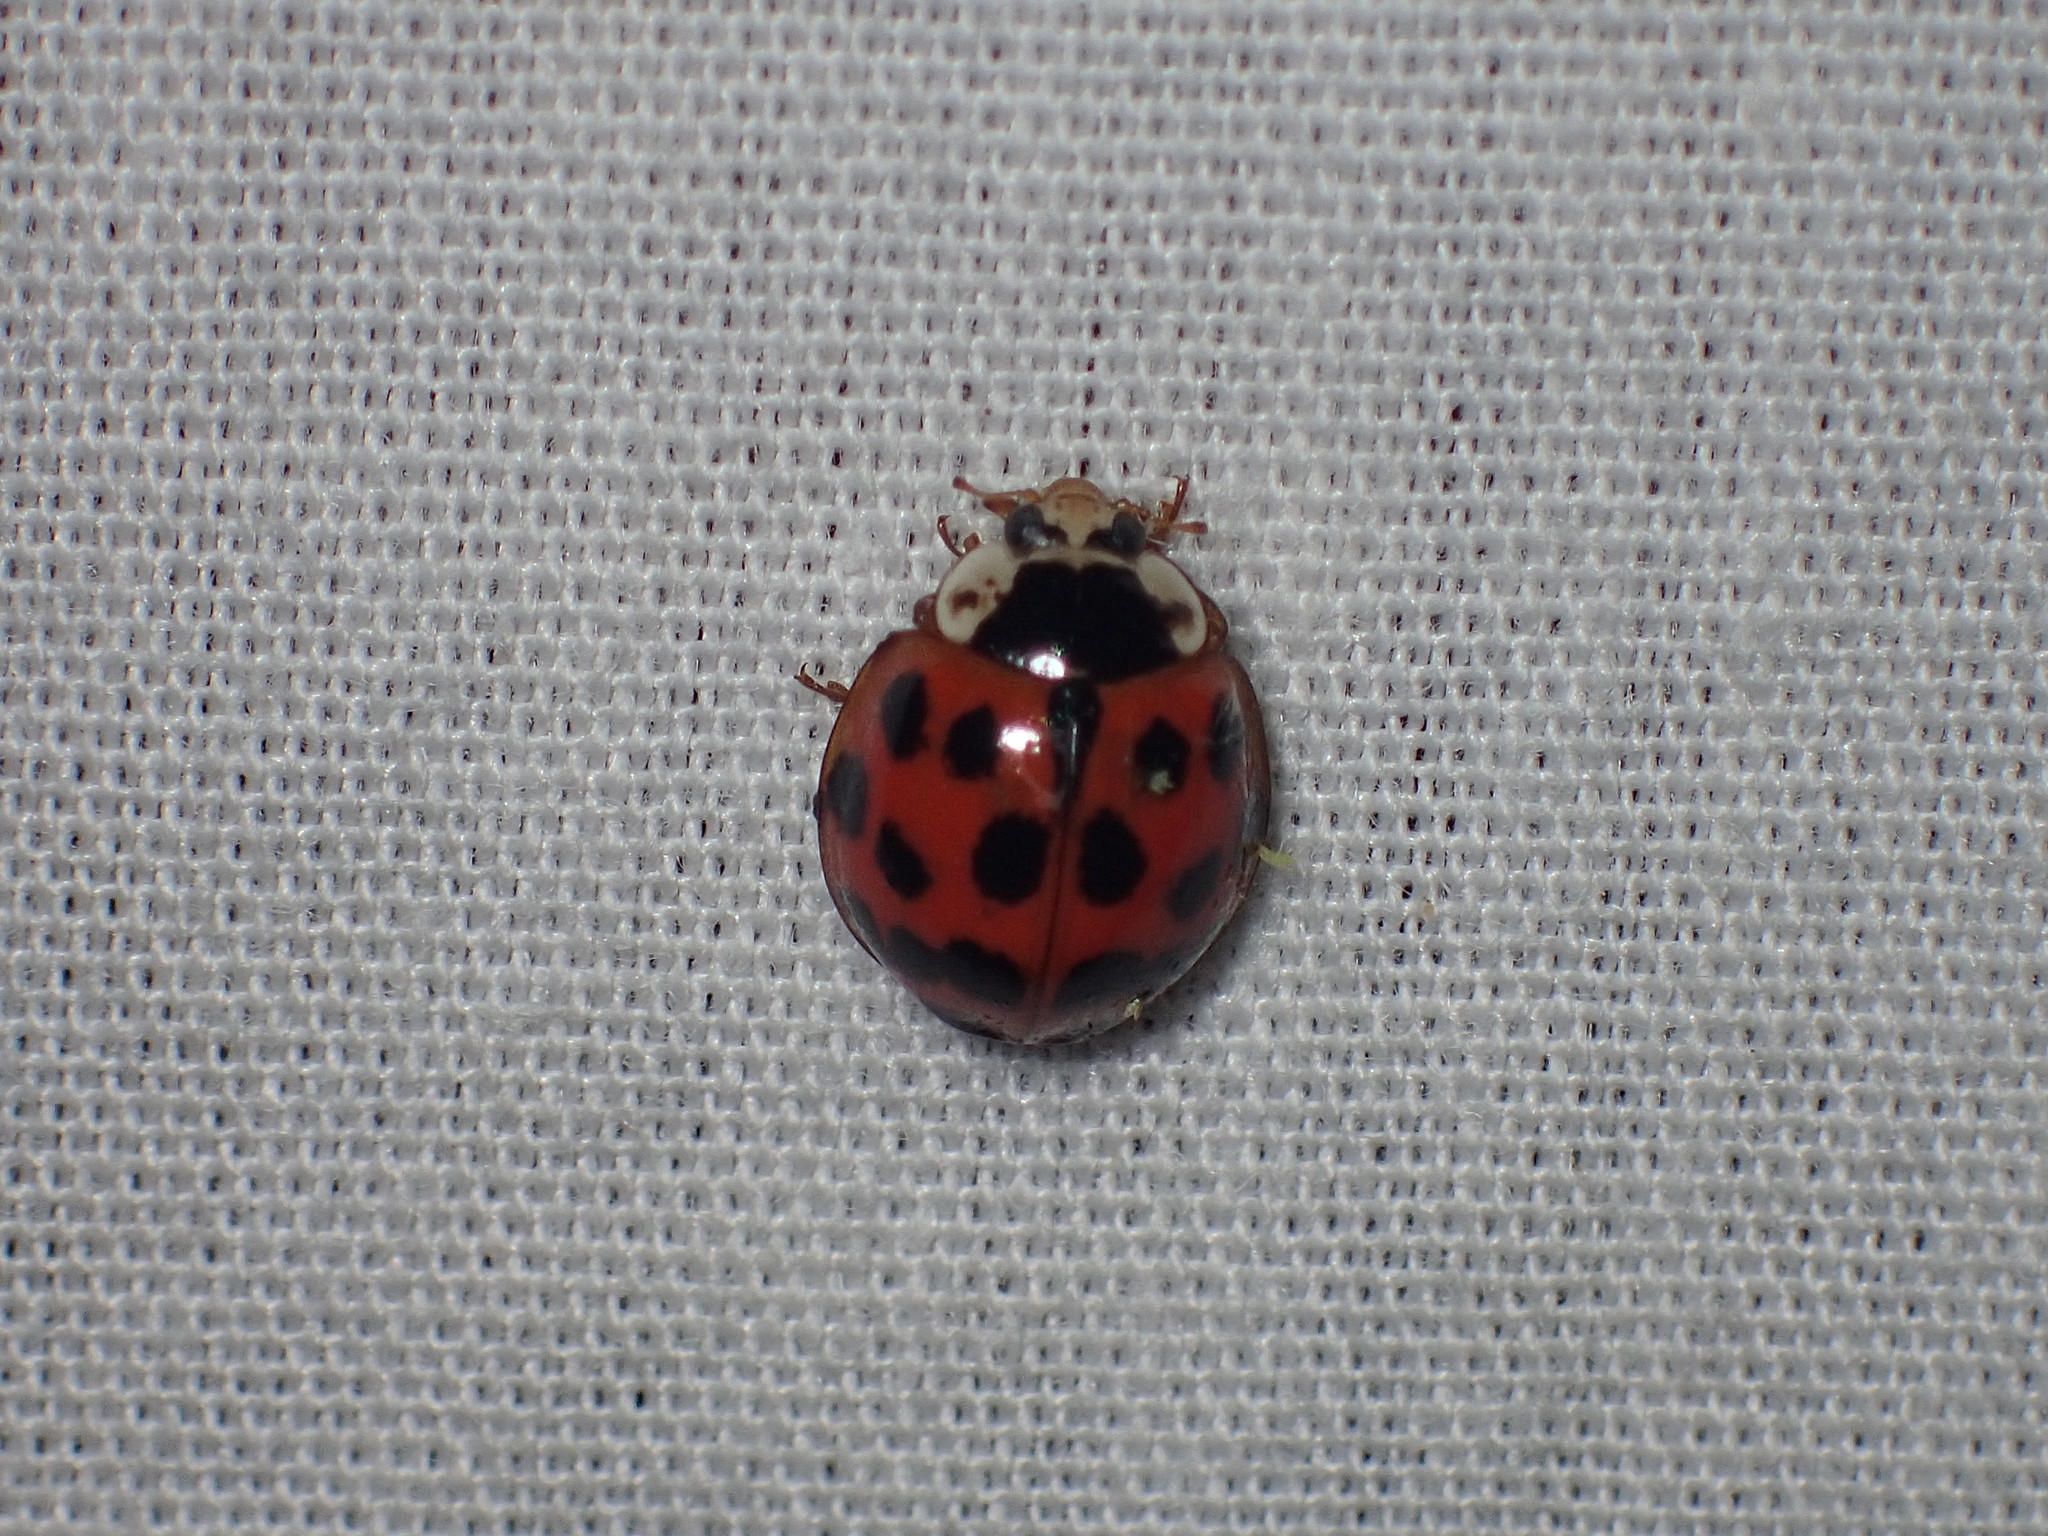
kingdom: Animalia
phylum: Arthropoda
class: Insecta
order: Coleoptera
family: Coccinellidae
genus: Harmonia
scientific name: Harmonia axyridis
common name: Harlequin ladybird
